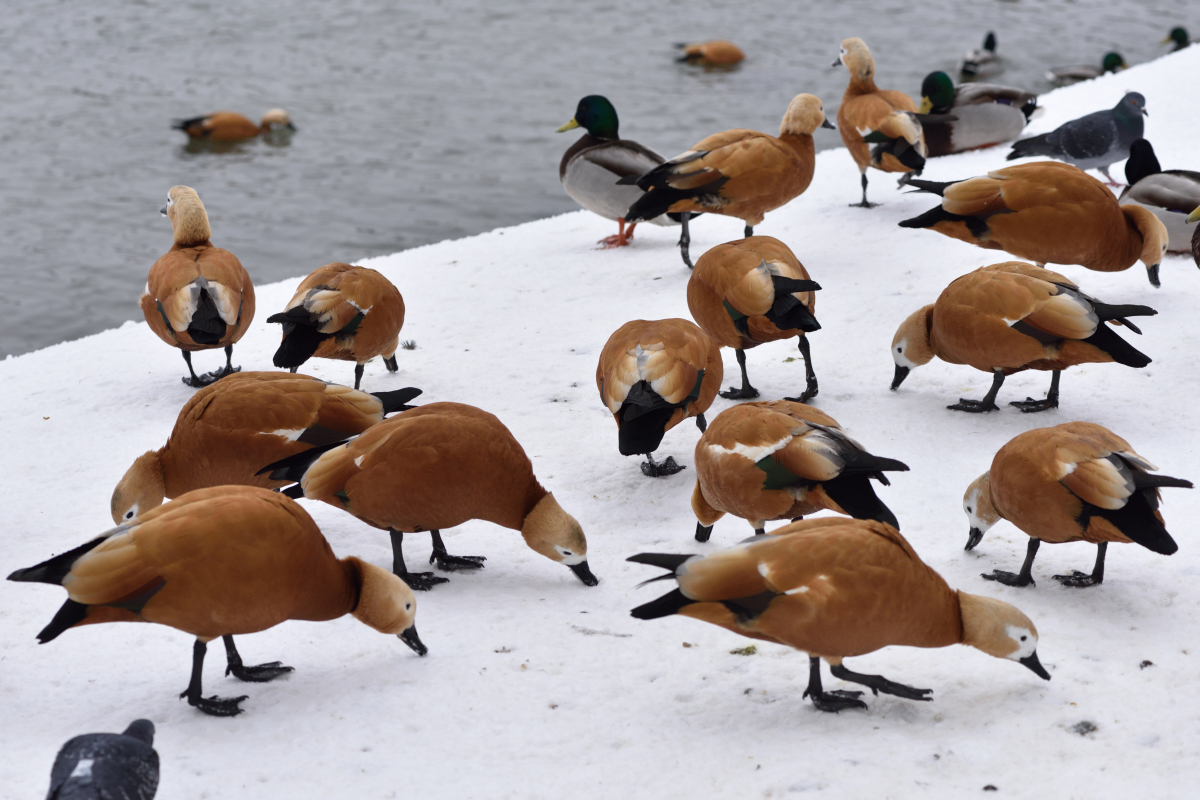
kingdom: Animalia
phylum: Chordata
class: Aves
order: Anseriformes
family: Anatidae
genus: Tadorna
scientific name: Tadorna ferruginea
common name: Ruddy shelduck
